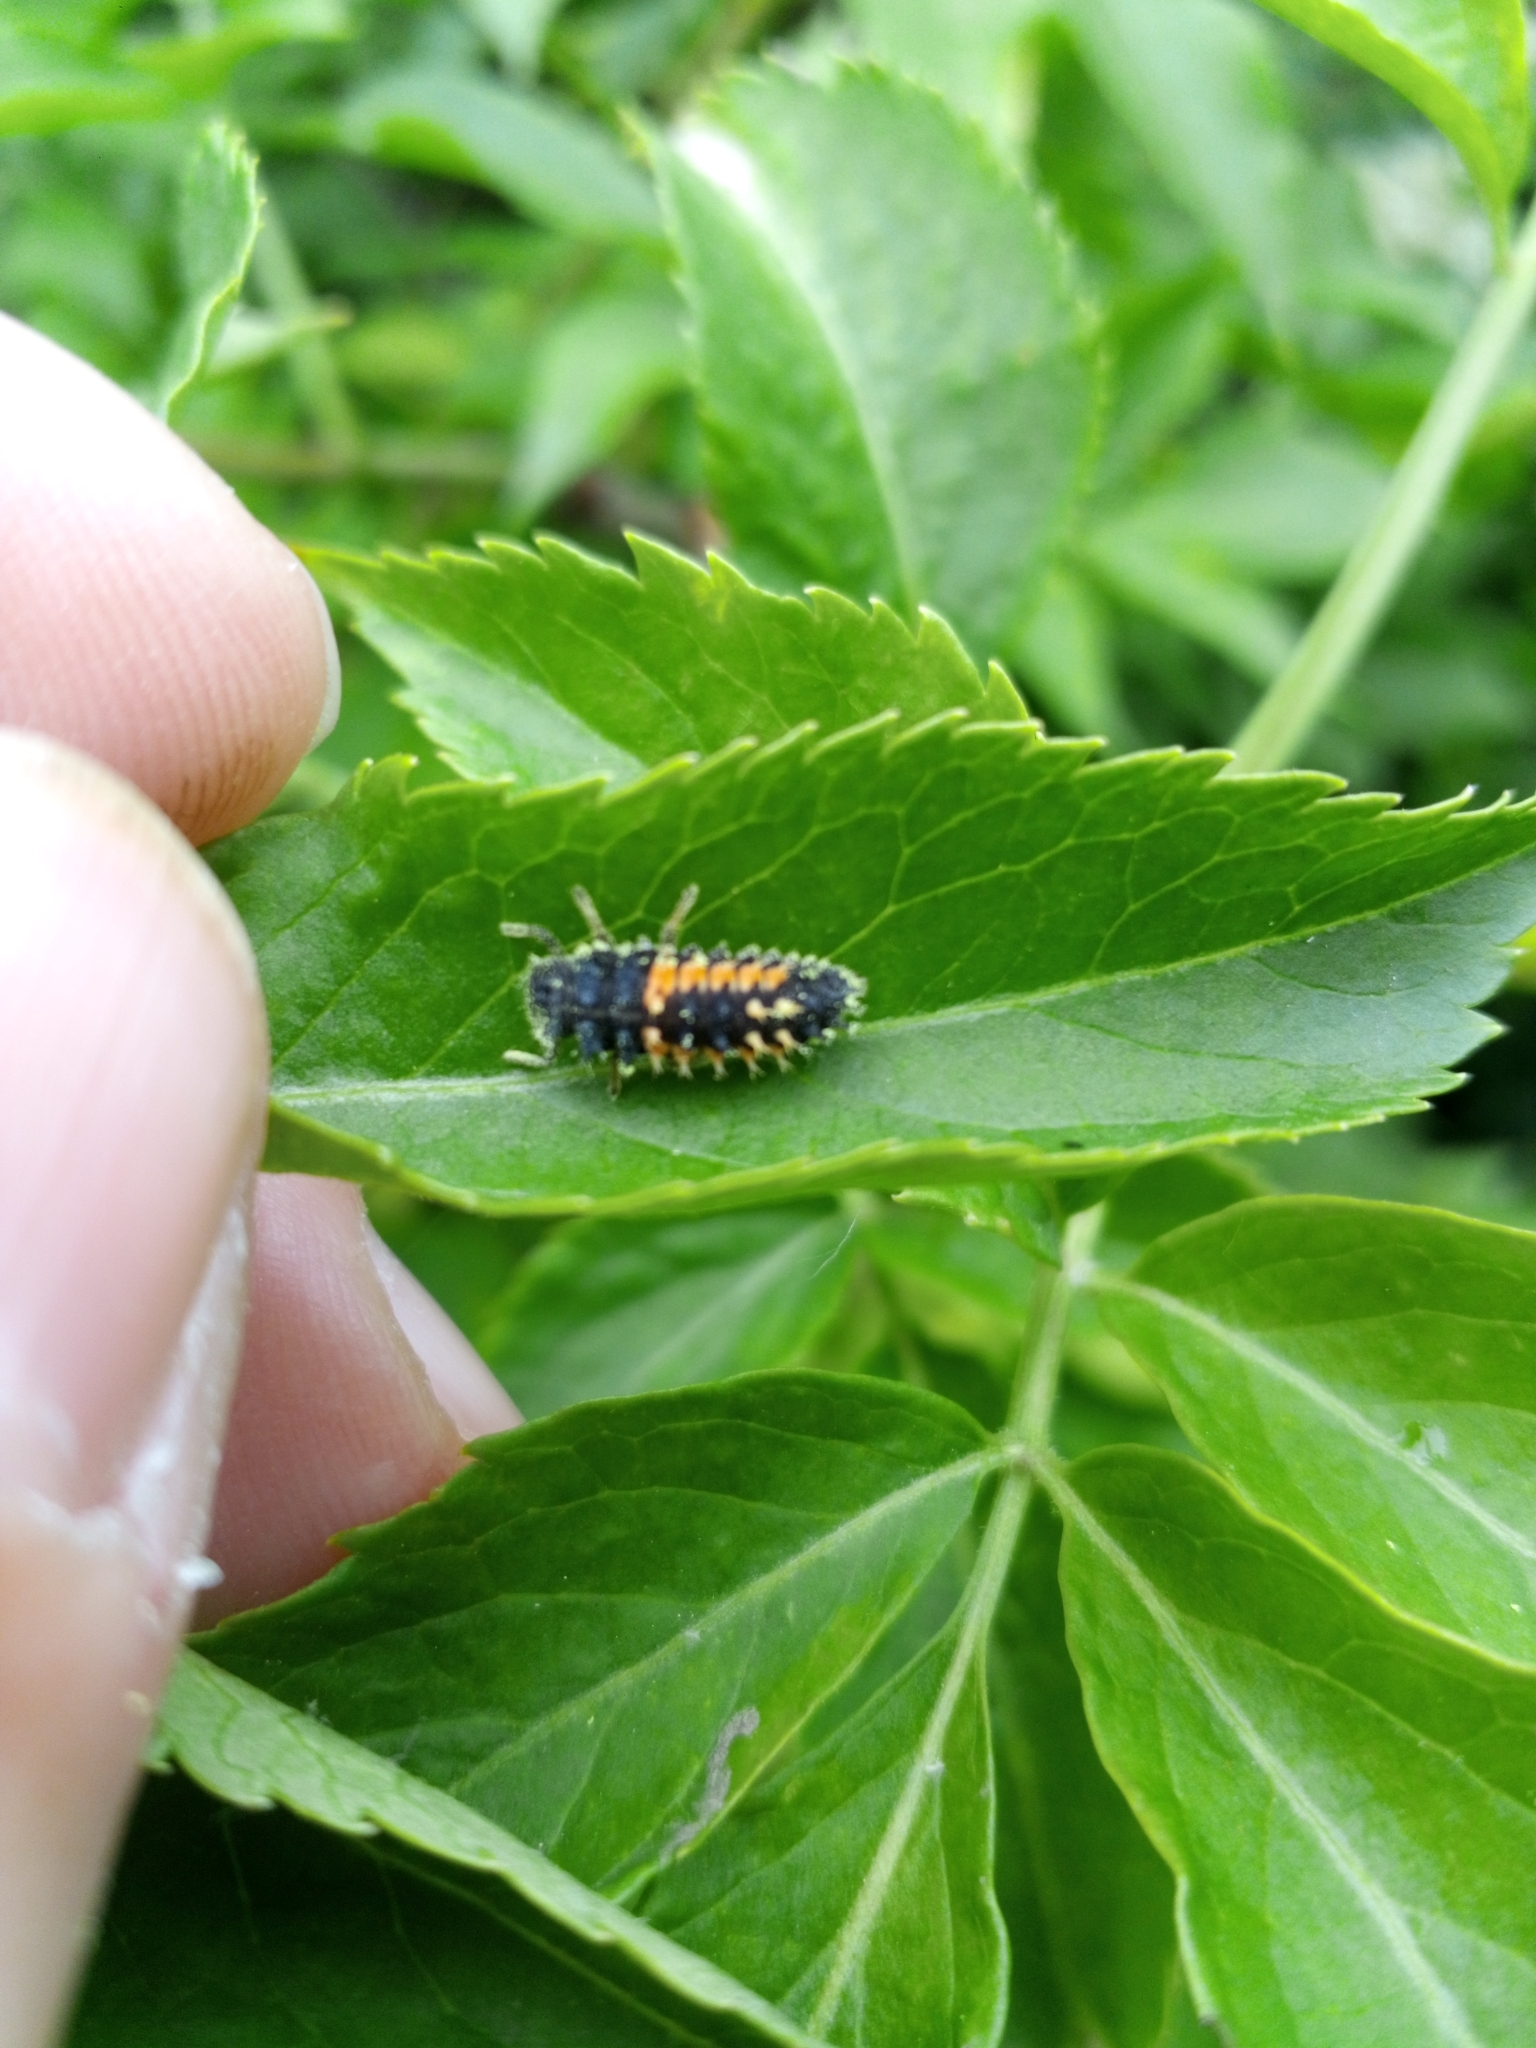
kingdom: Animalia
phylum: Arthropoda
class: Insecta
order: Coleoptera
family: Coccinellidae
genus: Harmonia
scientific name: Harmonia axyridis
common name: Harlequin ladybird
